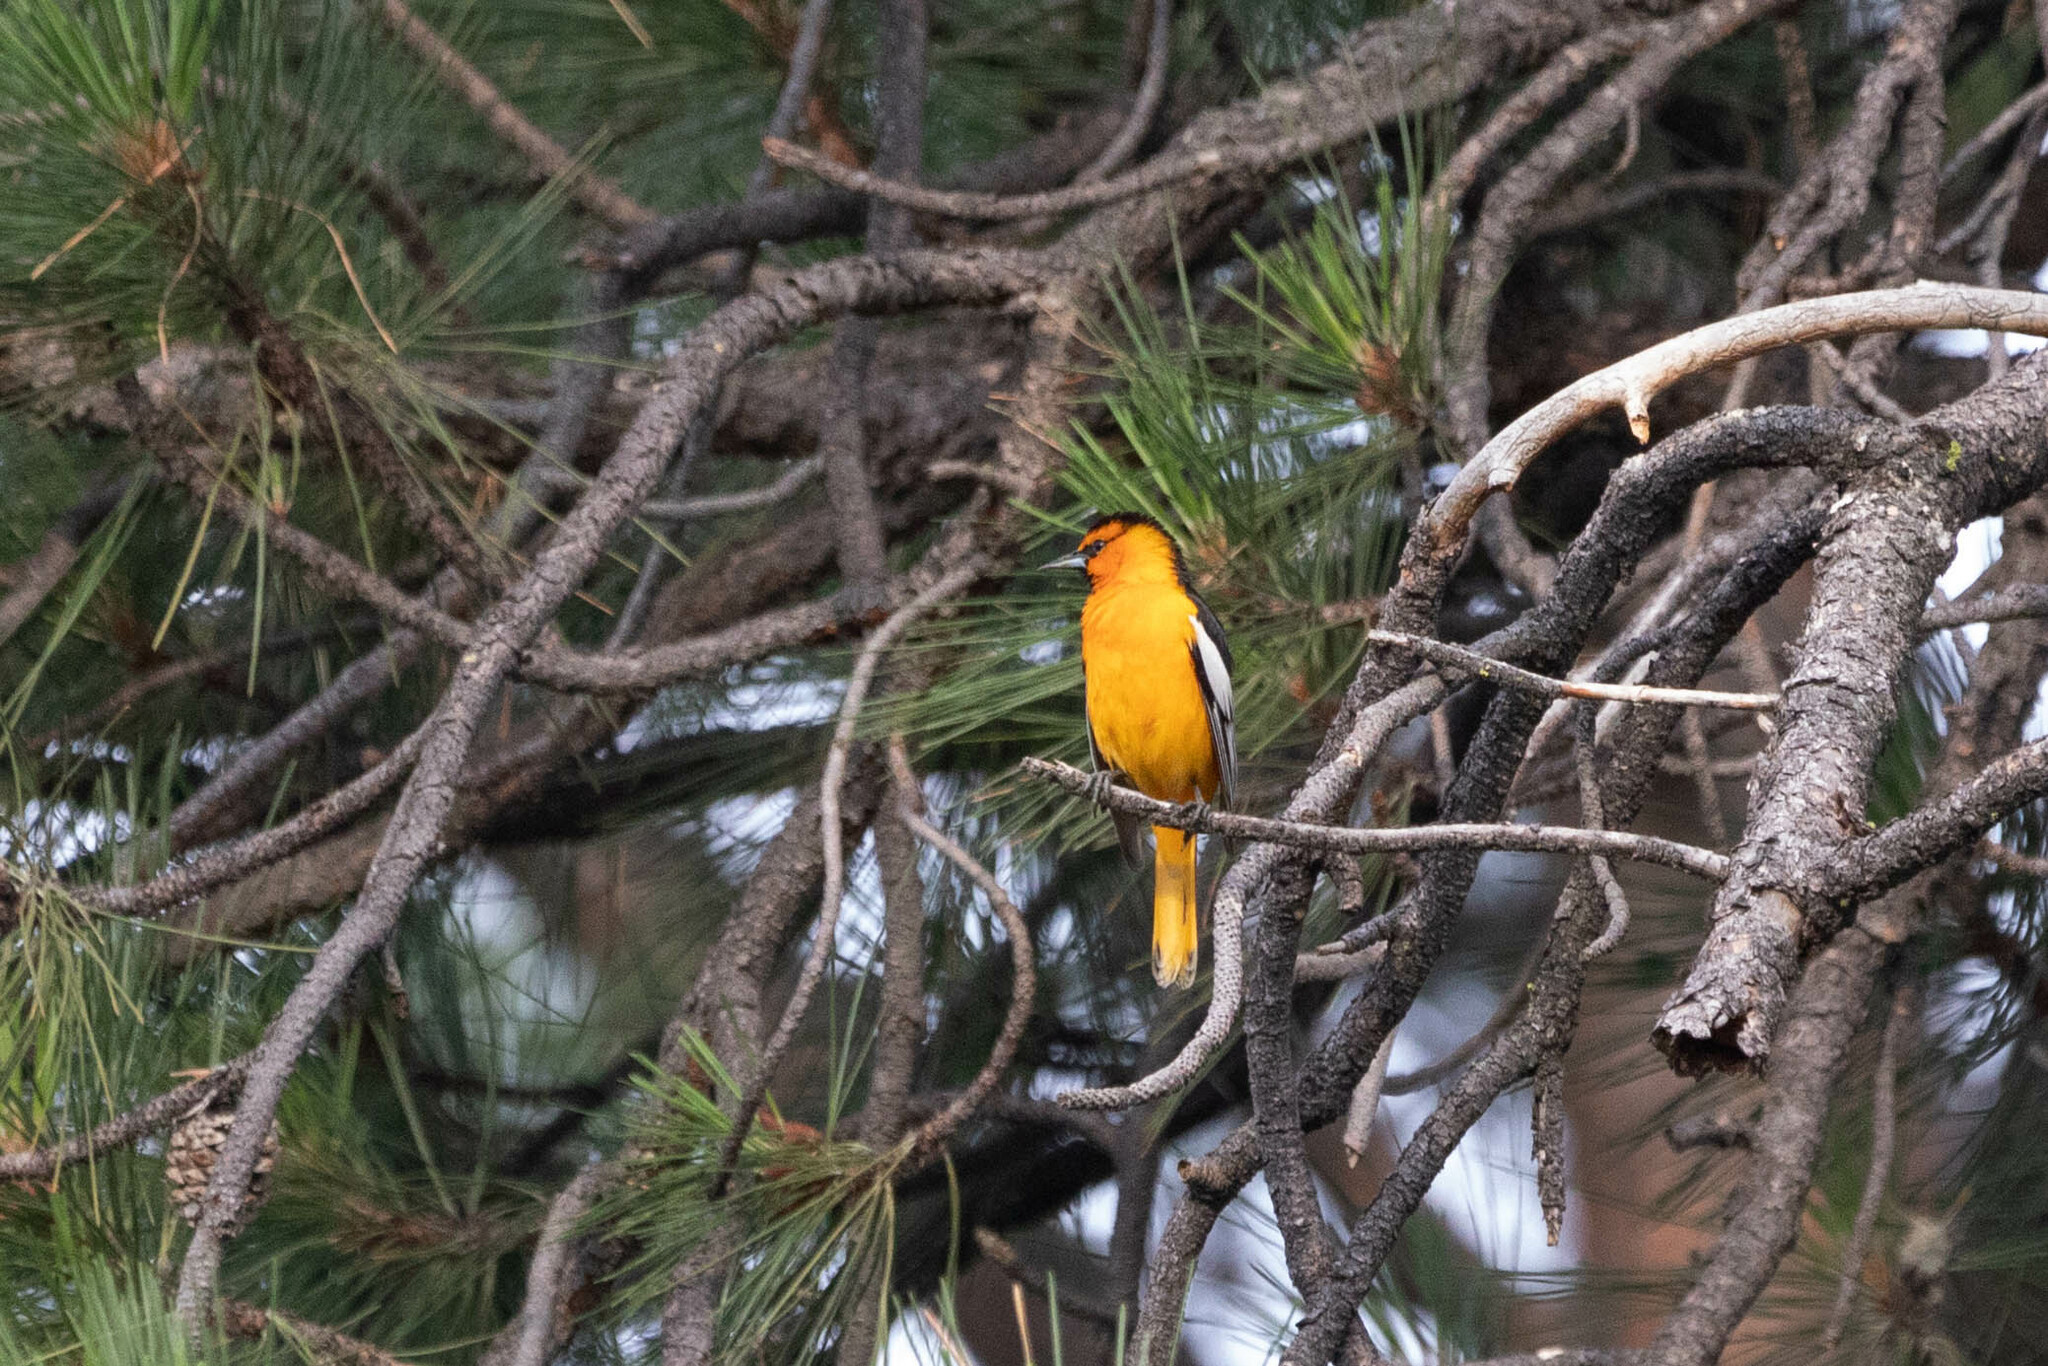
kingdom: Animalia
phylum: Chordata
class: Aves
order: Passeriformes
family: Icteridae
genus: Icterus
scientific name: Icterus bullockii
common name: Bullock's oriole
